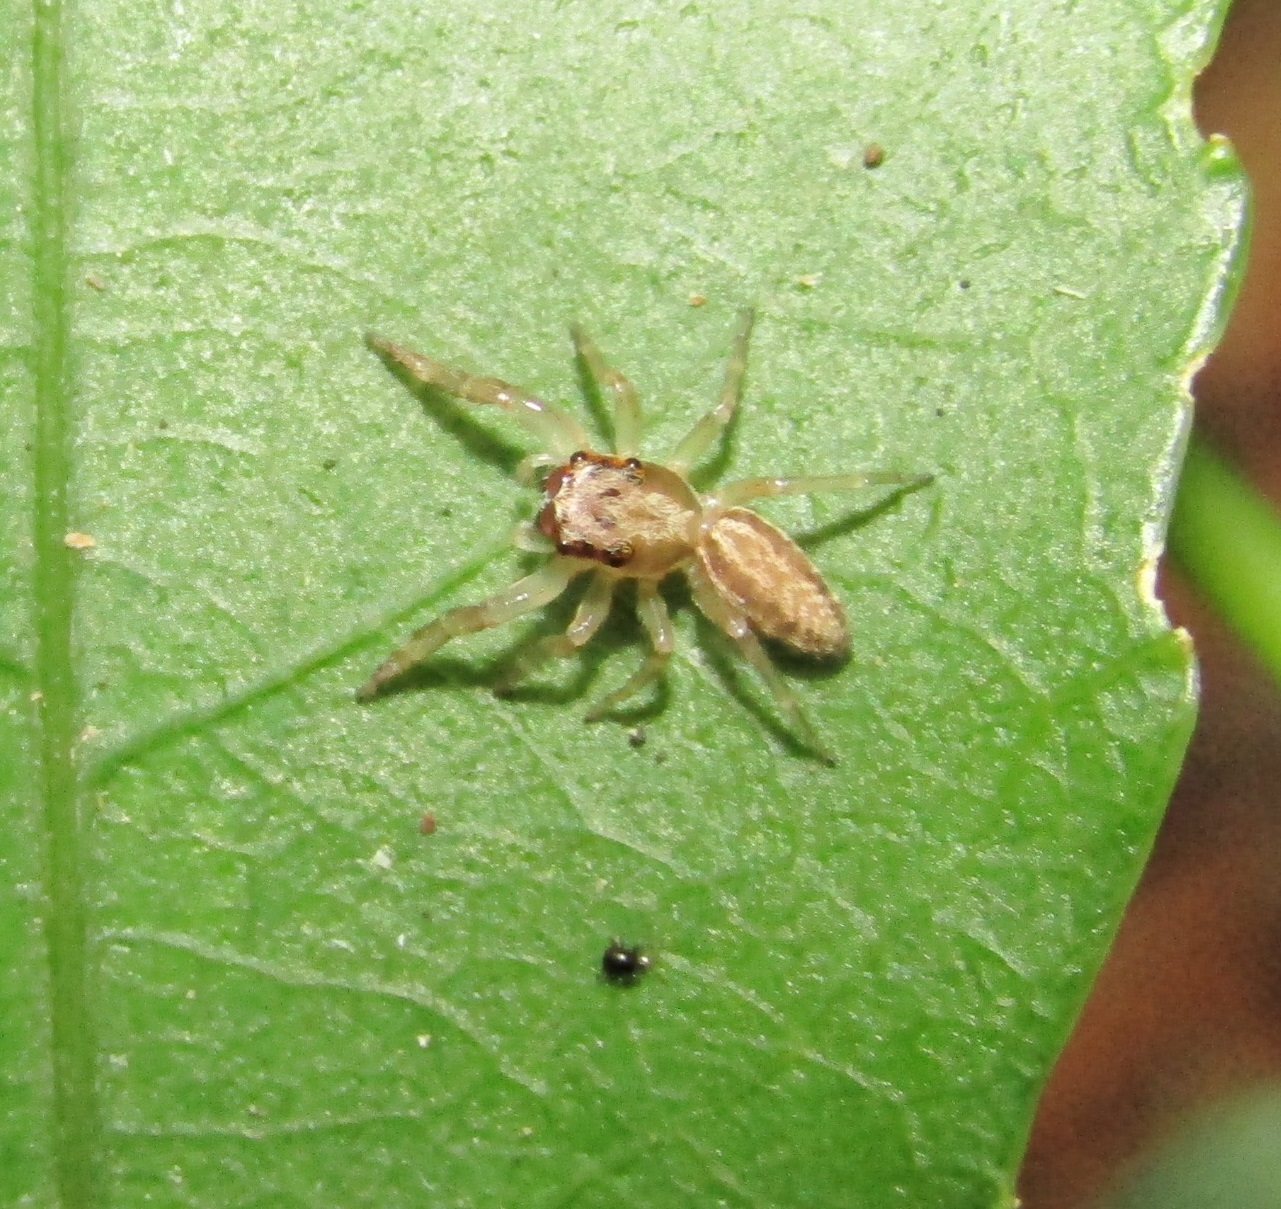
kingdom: Animalia
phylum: Arthropoda
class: Arachnida
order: Araneae
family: Salticidae
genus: Trite
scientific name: Trite mustilina
